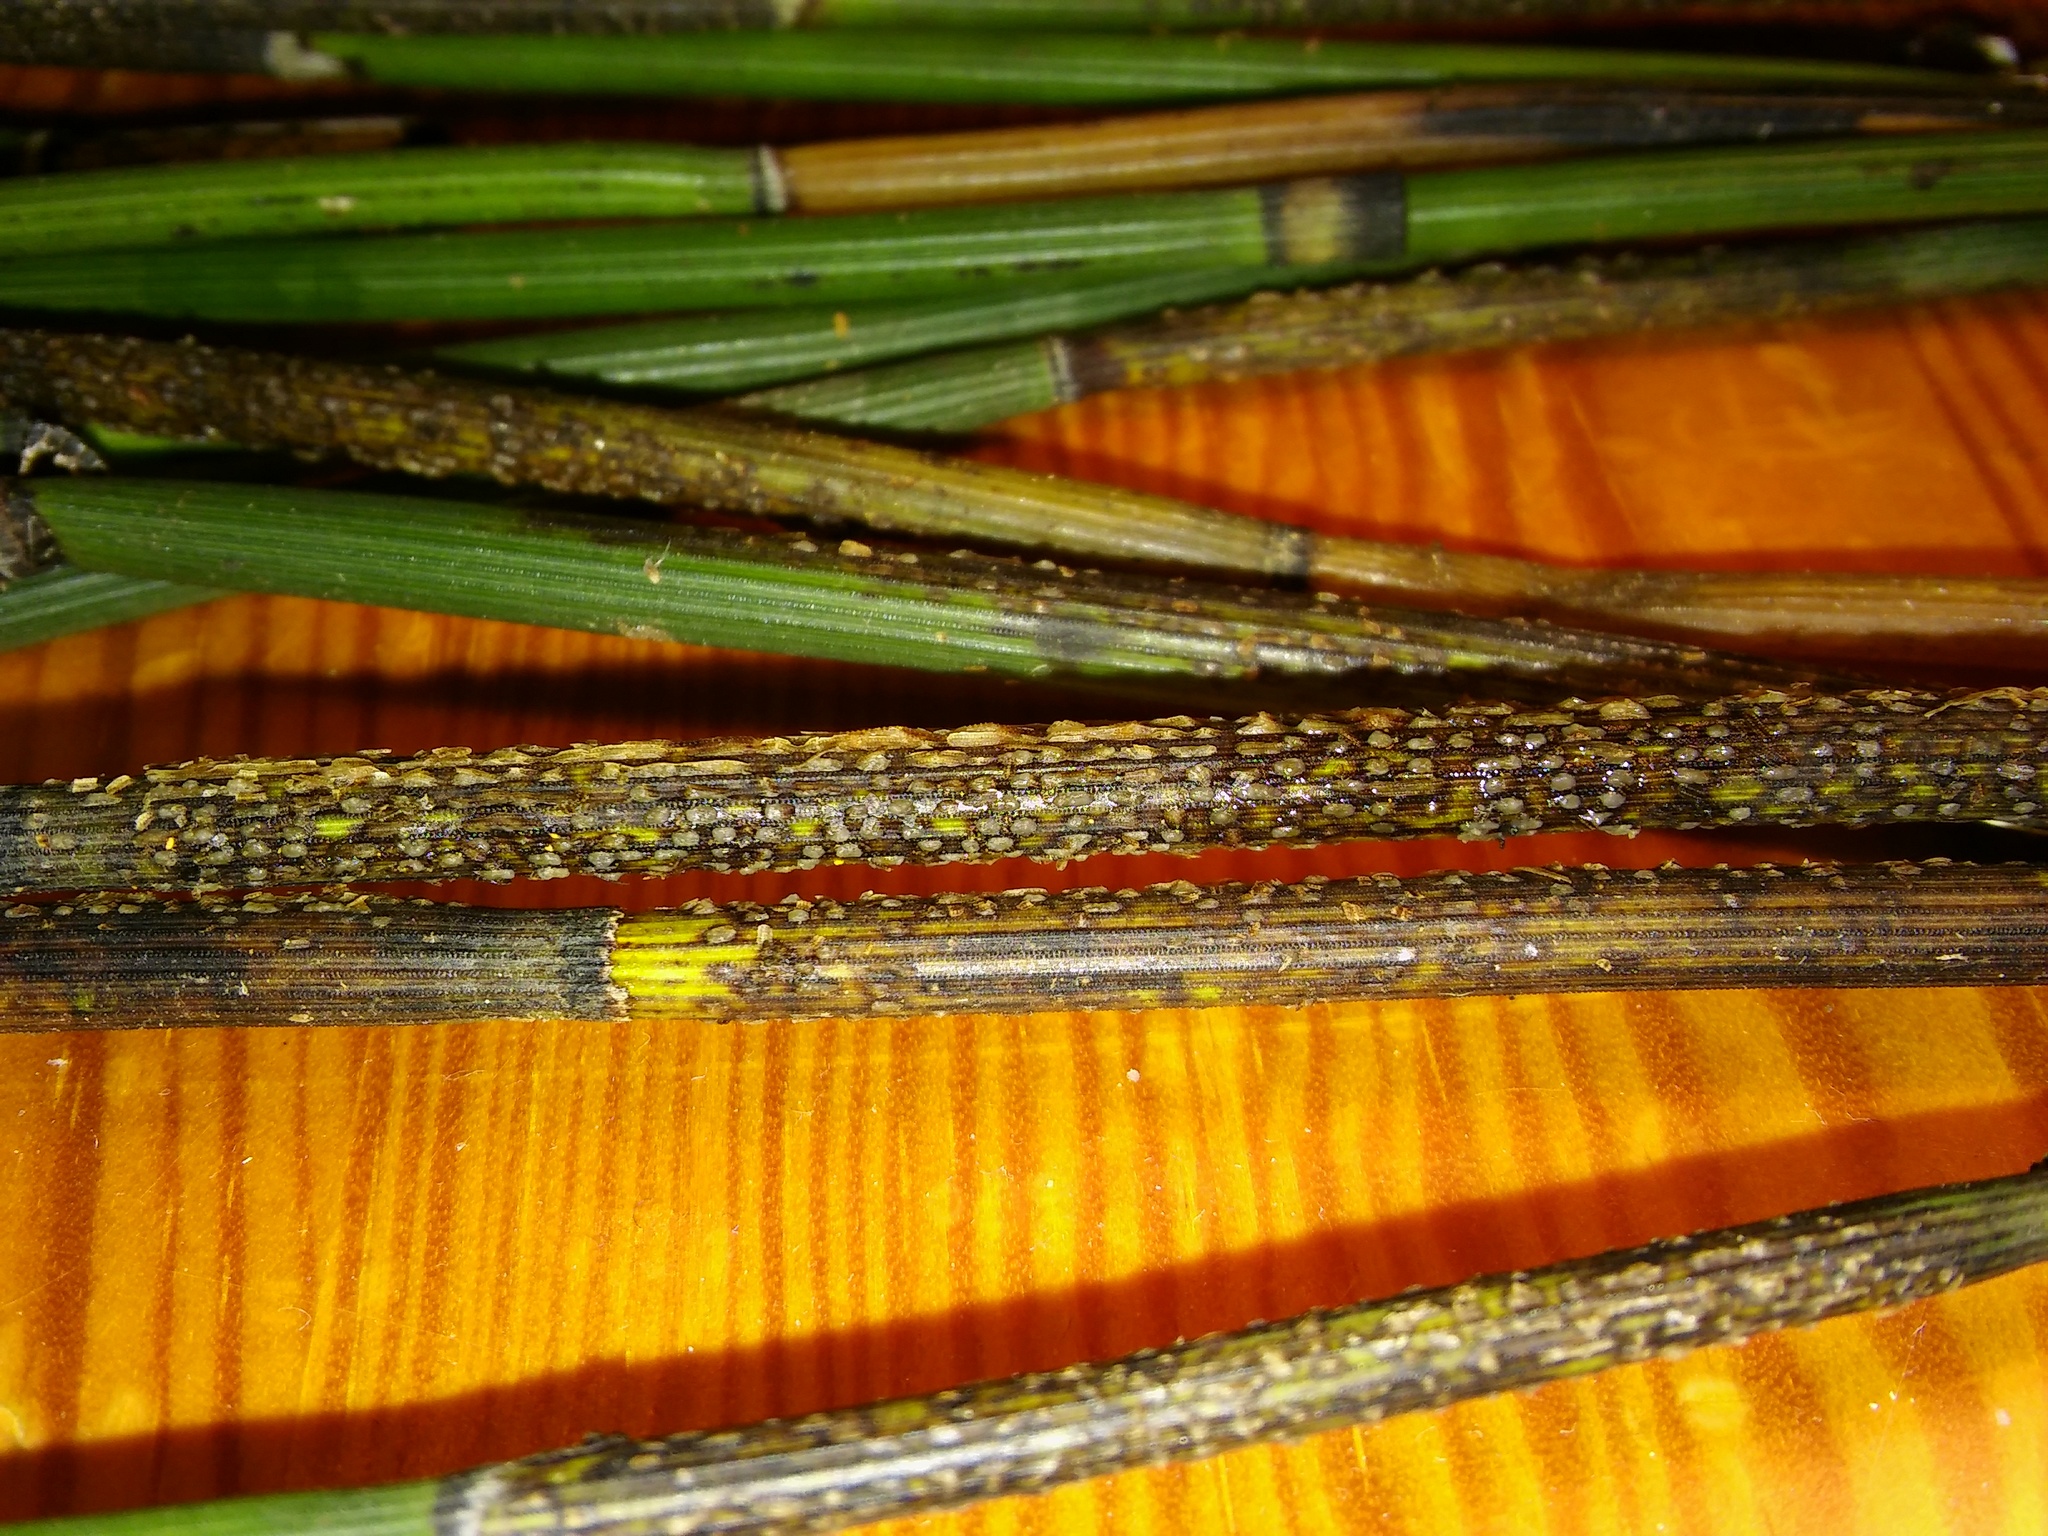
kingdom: Fungi
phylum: Ascomycota
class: Leotiomycetes
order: Helotiales
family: Helotiaceae
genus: Stamnaria
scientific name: Stamnaria americana
